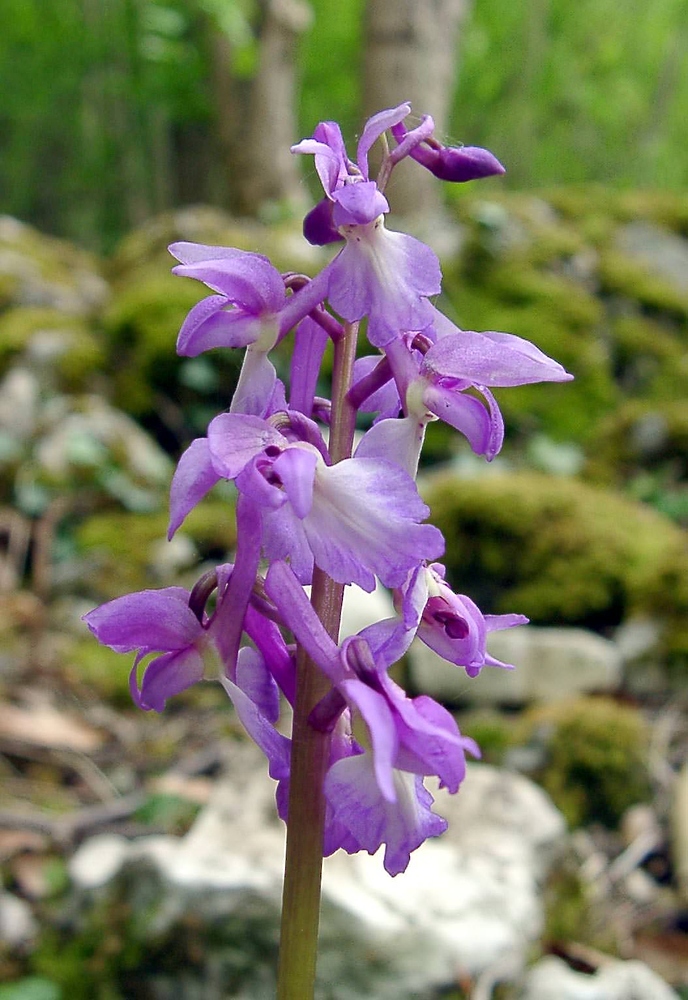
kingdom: Plantae
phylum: Tracheophyta
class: Liliopsida
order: Asparagales
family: Orchidaceae
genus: Orchis
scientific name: Orchis mascula
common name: Early-purple orchid
